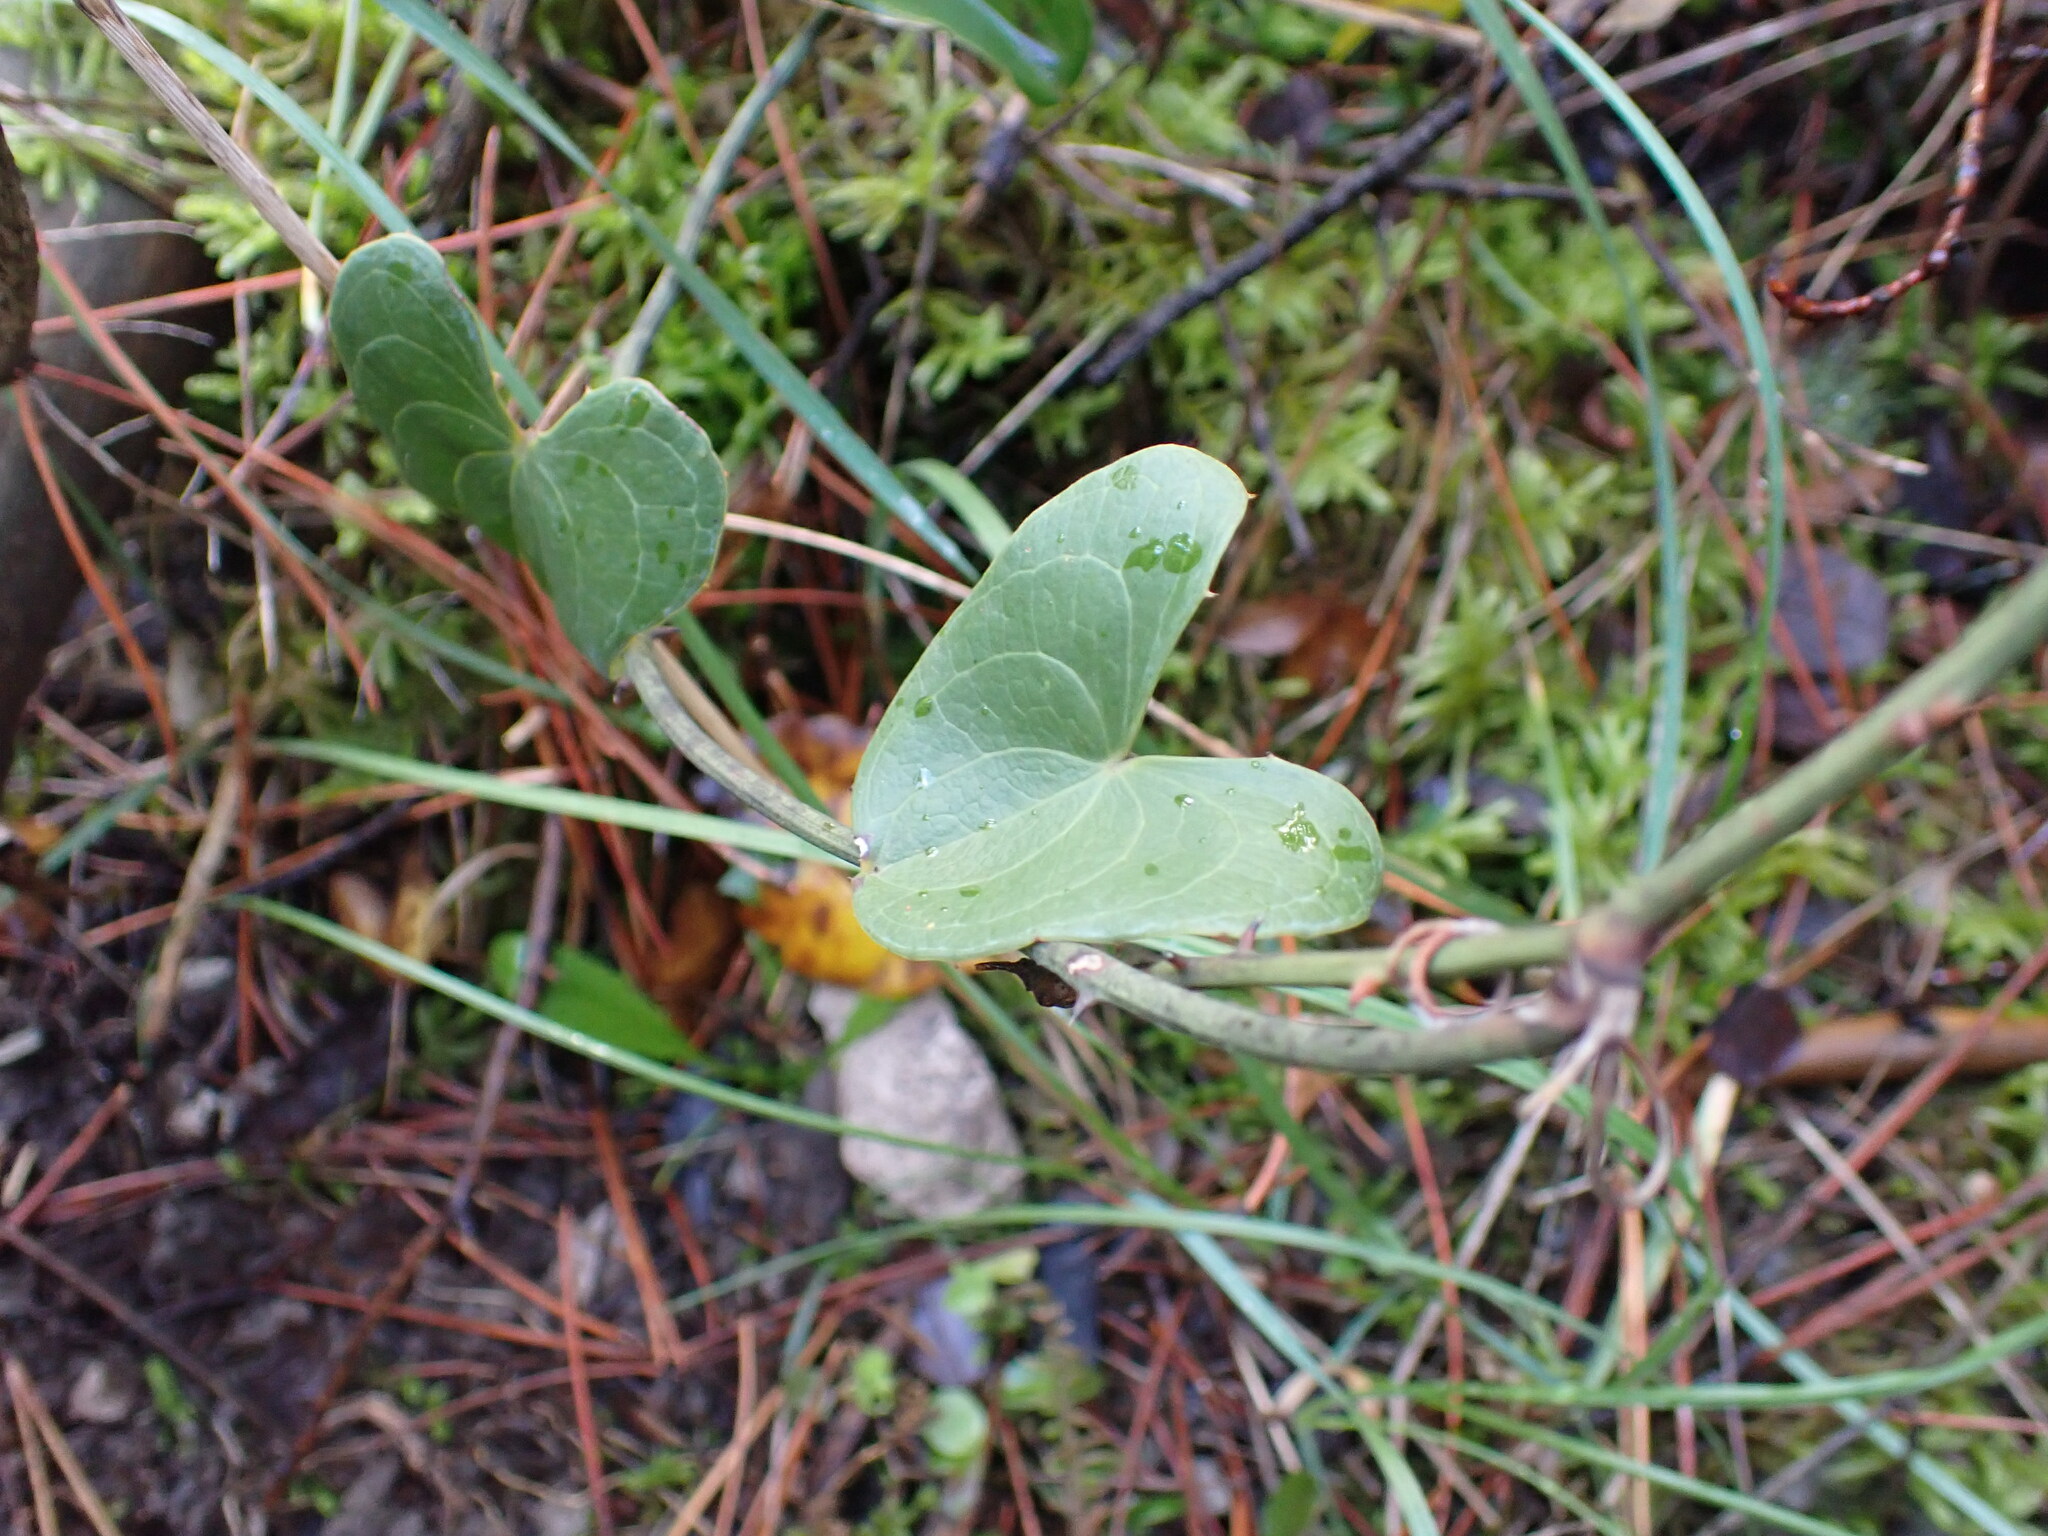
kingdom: Plantae
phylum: Tracheophyta
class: Liliopsida
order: Liliales
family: Smilacaceae
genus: Smilax
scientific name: Smilax aspera
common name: Common smilax
